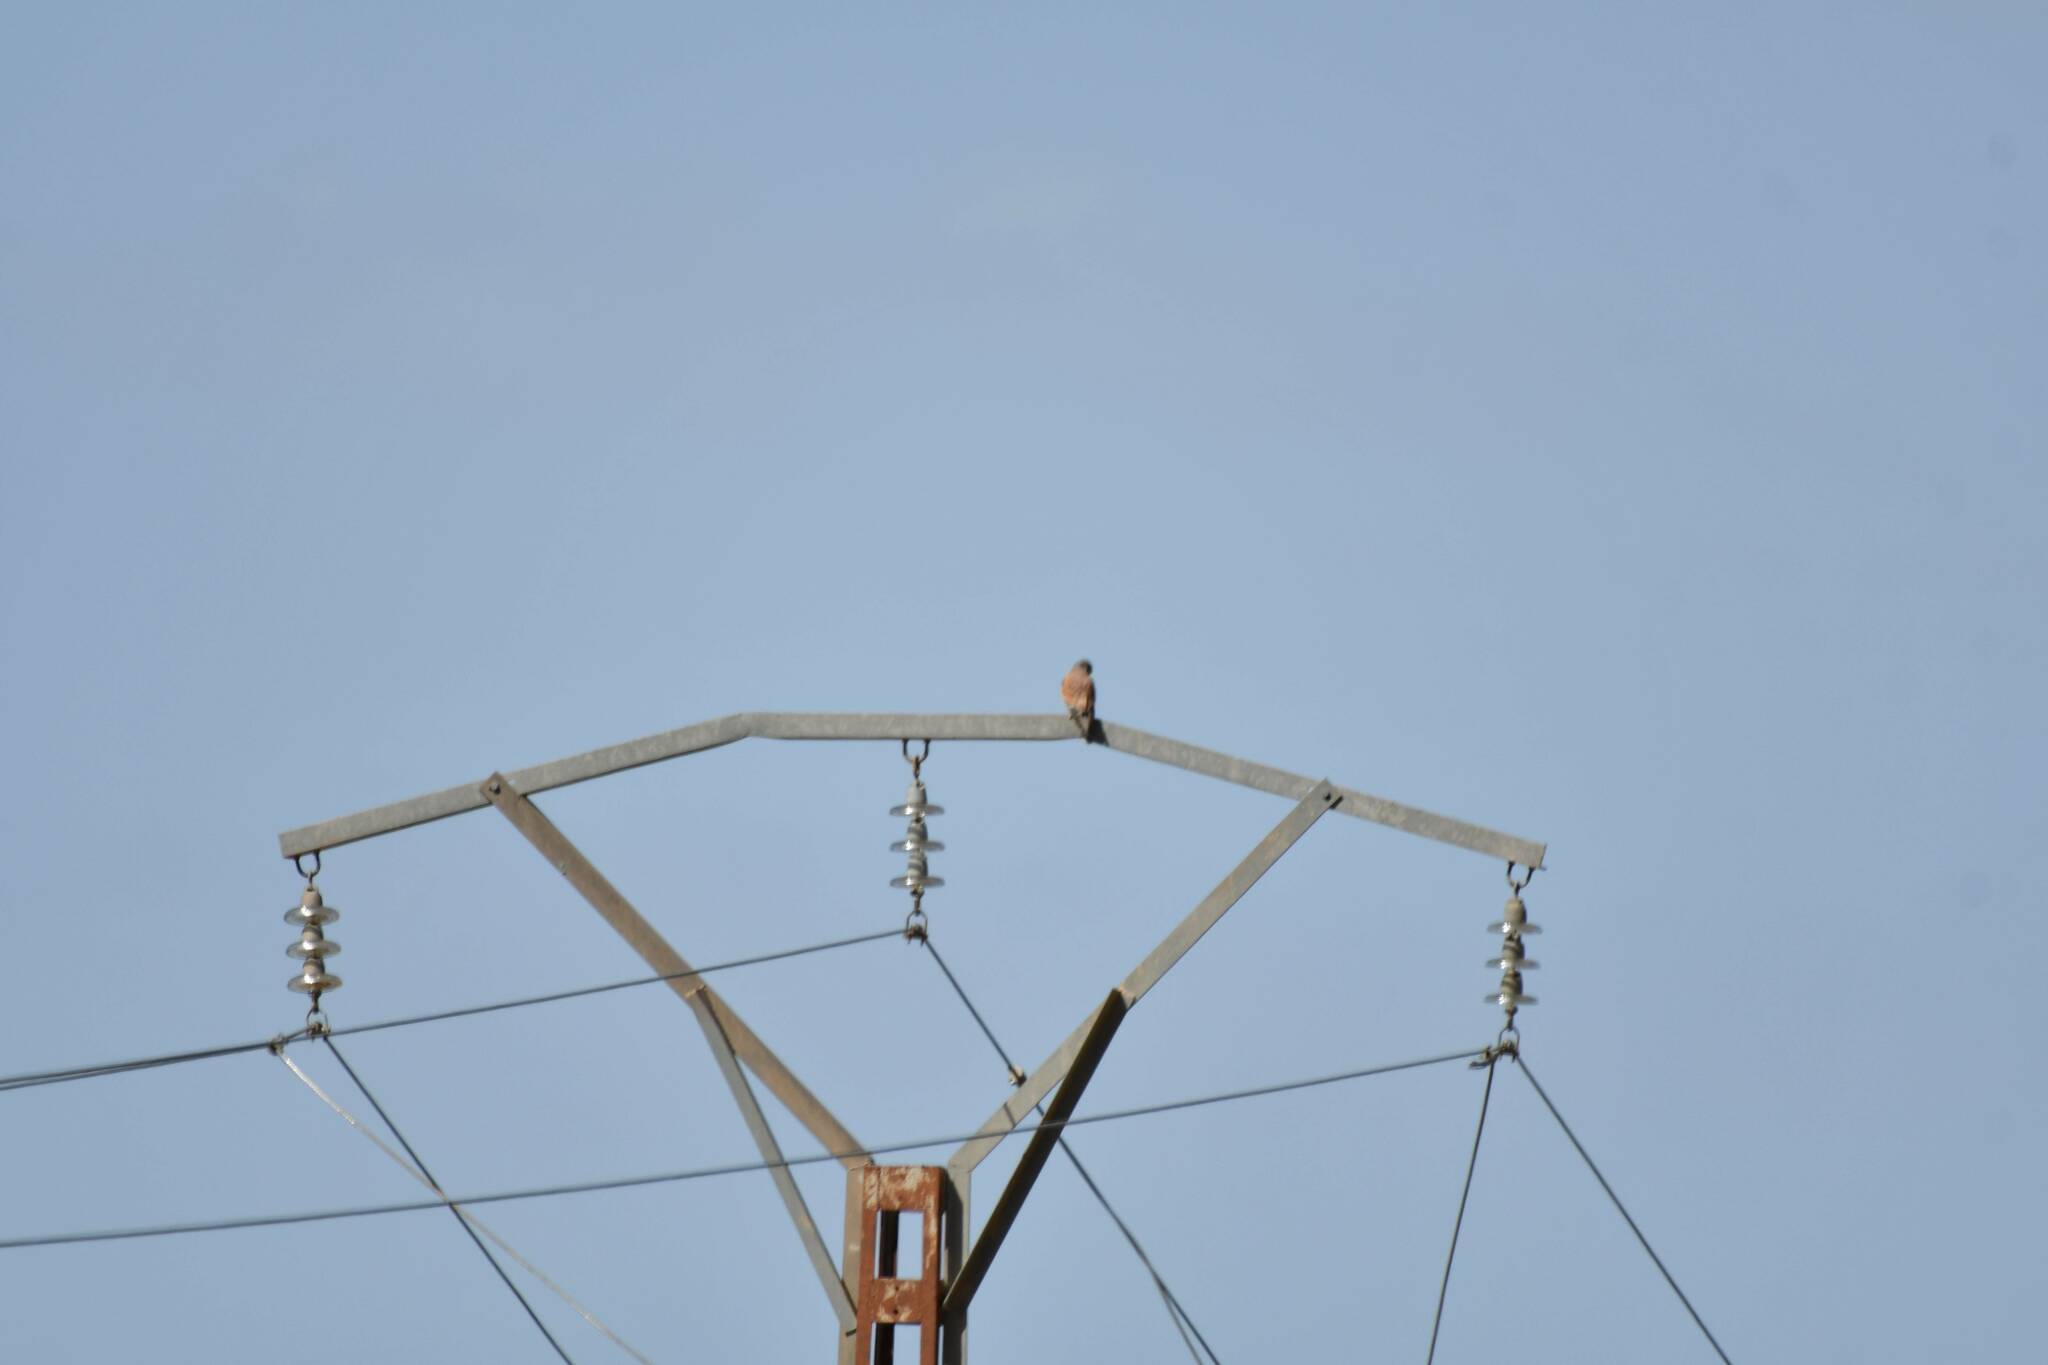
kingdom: Animalia
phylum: Chordata
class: Aves
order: Falconiformes
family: Falconidae
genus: Falco
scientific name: Falco tinnunculus
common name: Common kestrel
